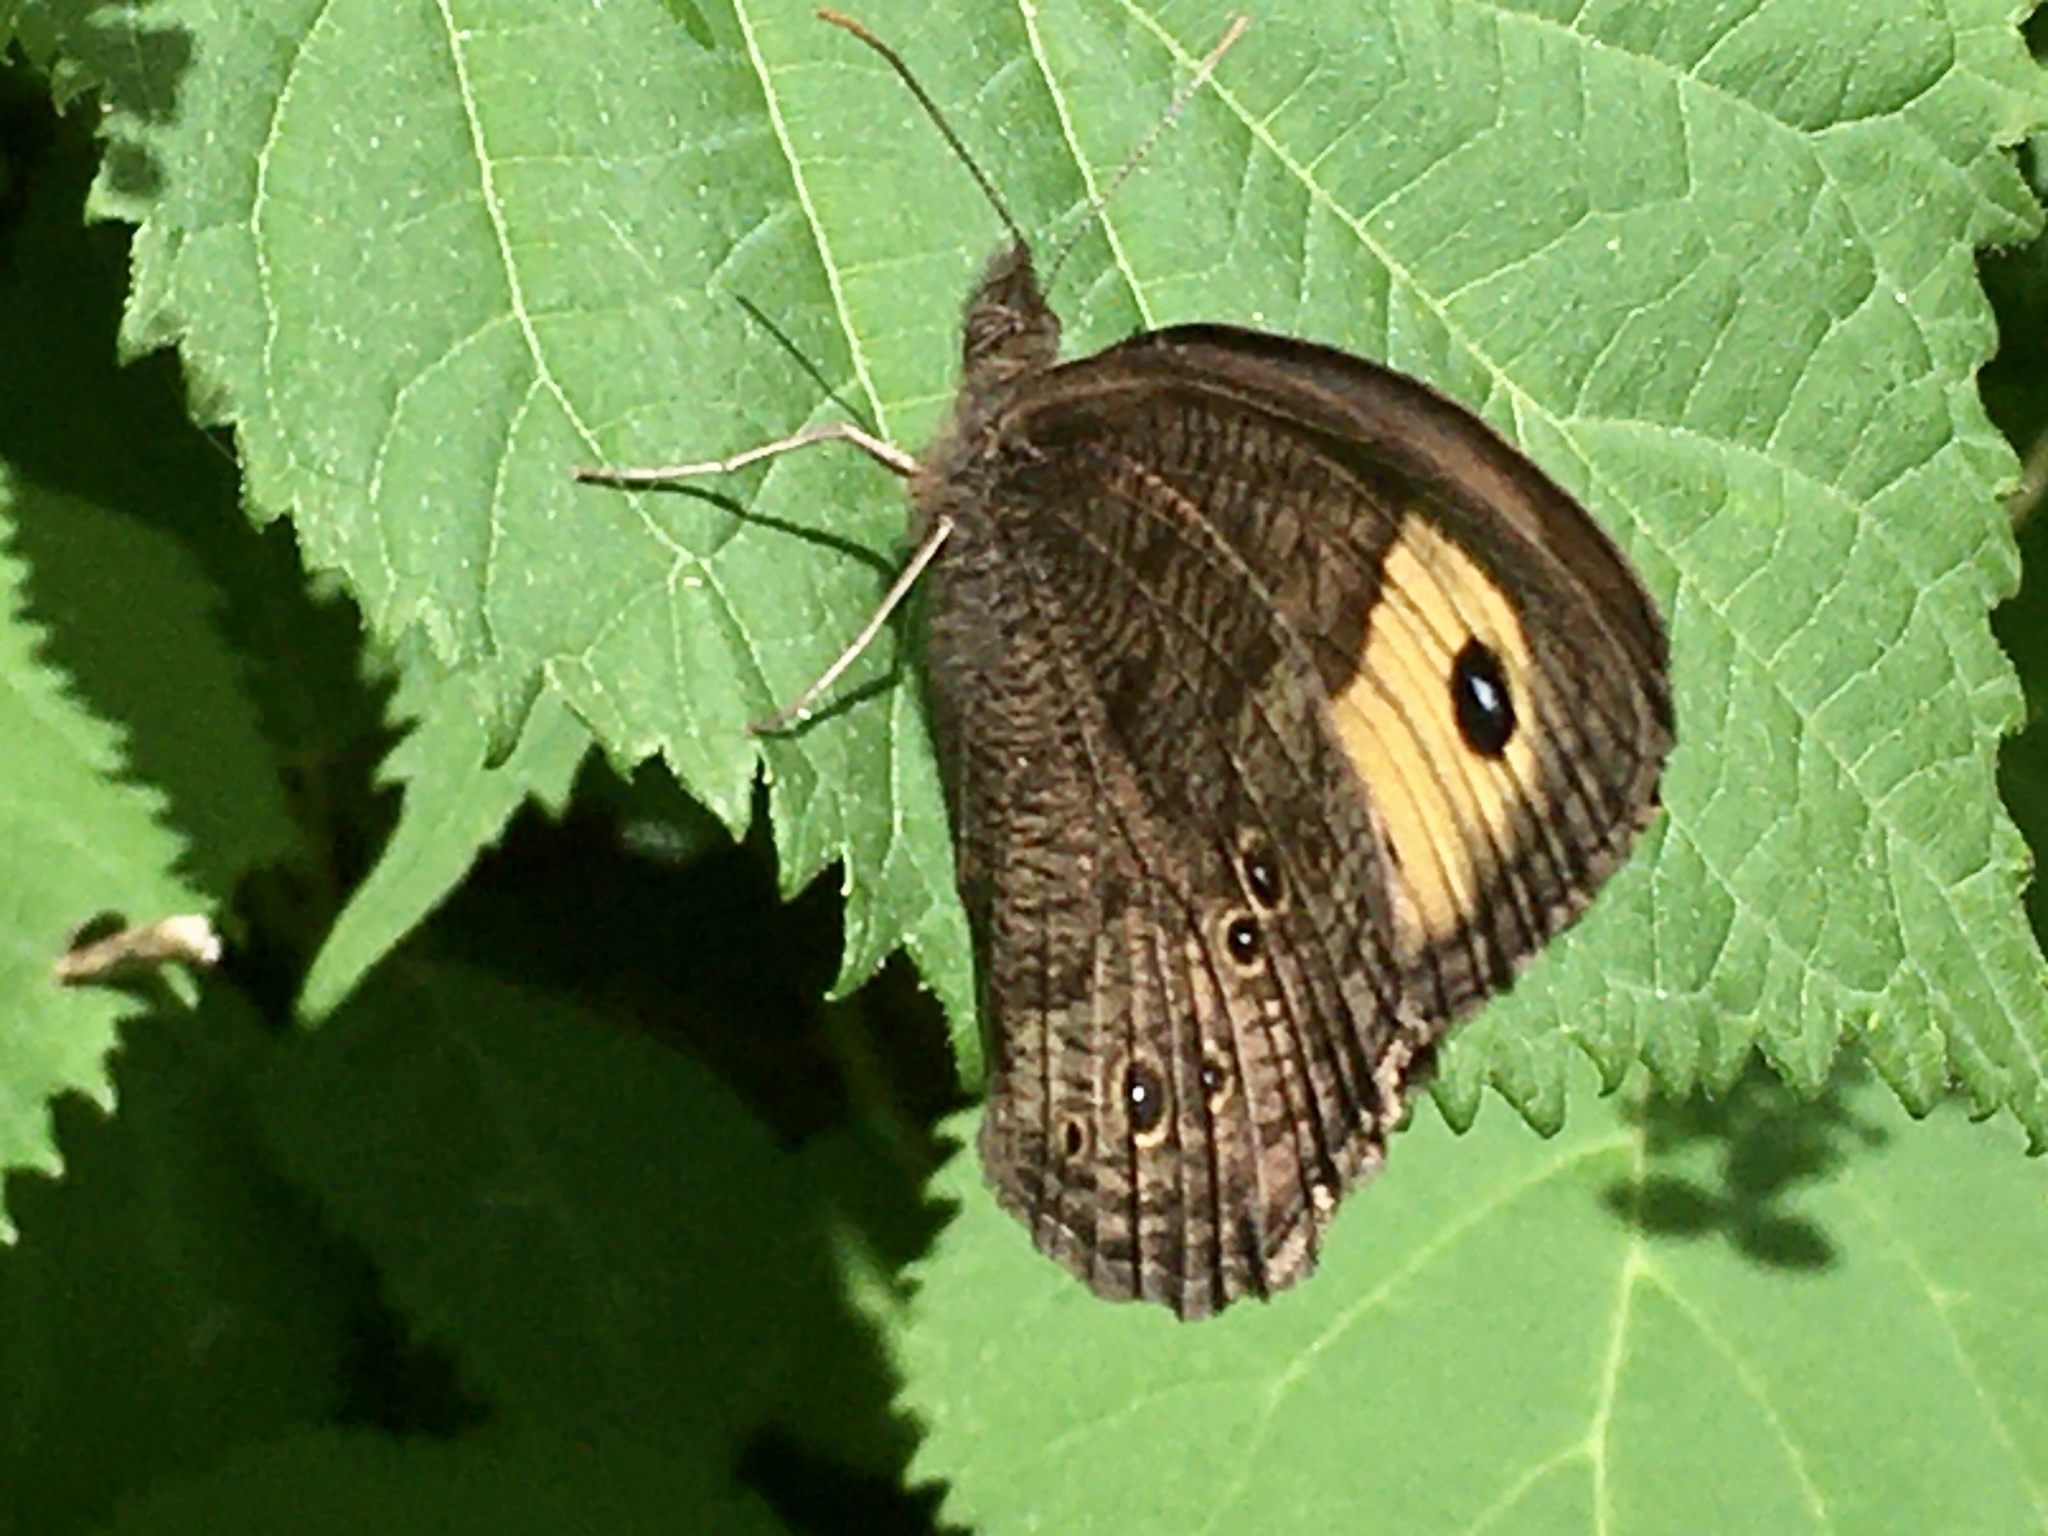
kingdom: Animalia
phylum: Arthropoda
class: Insecta
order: Lepidoptera
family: Nymphalidae
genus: Cercyonis
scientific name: Cercyonis pegala
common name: Common wood-nymph
